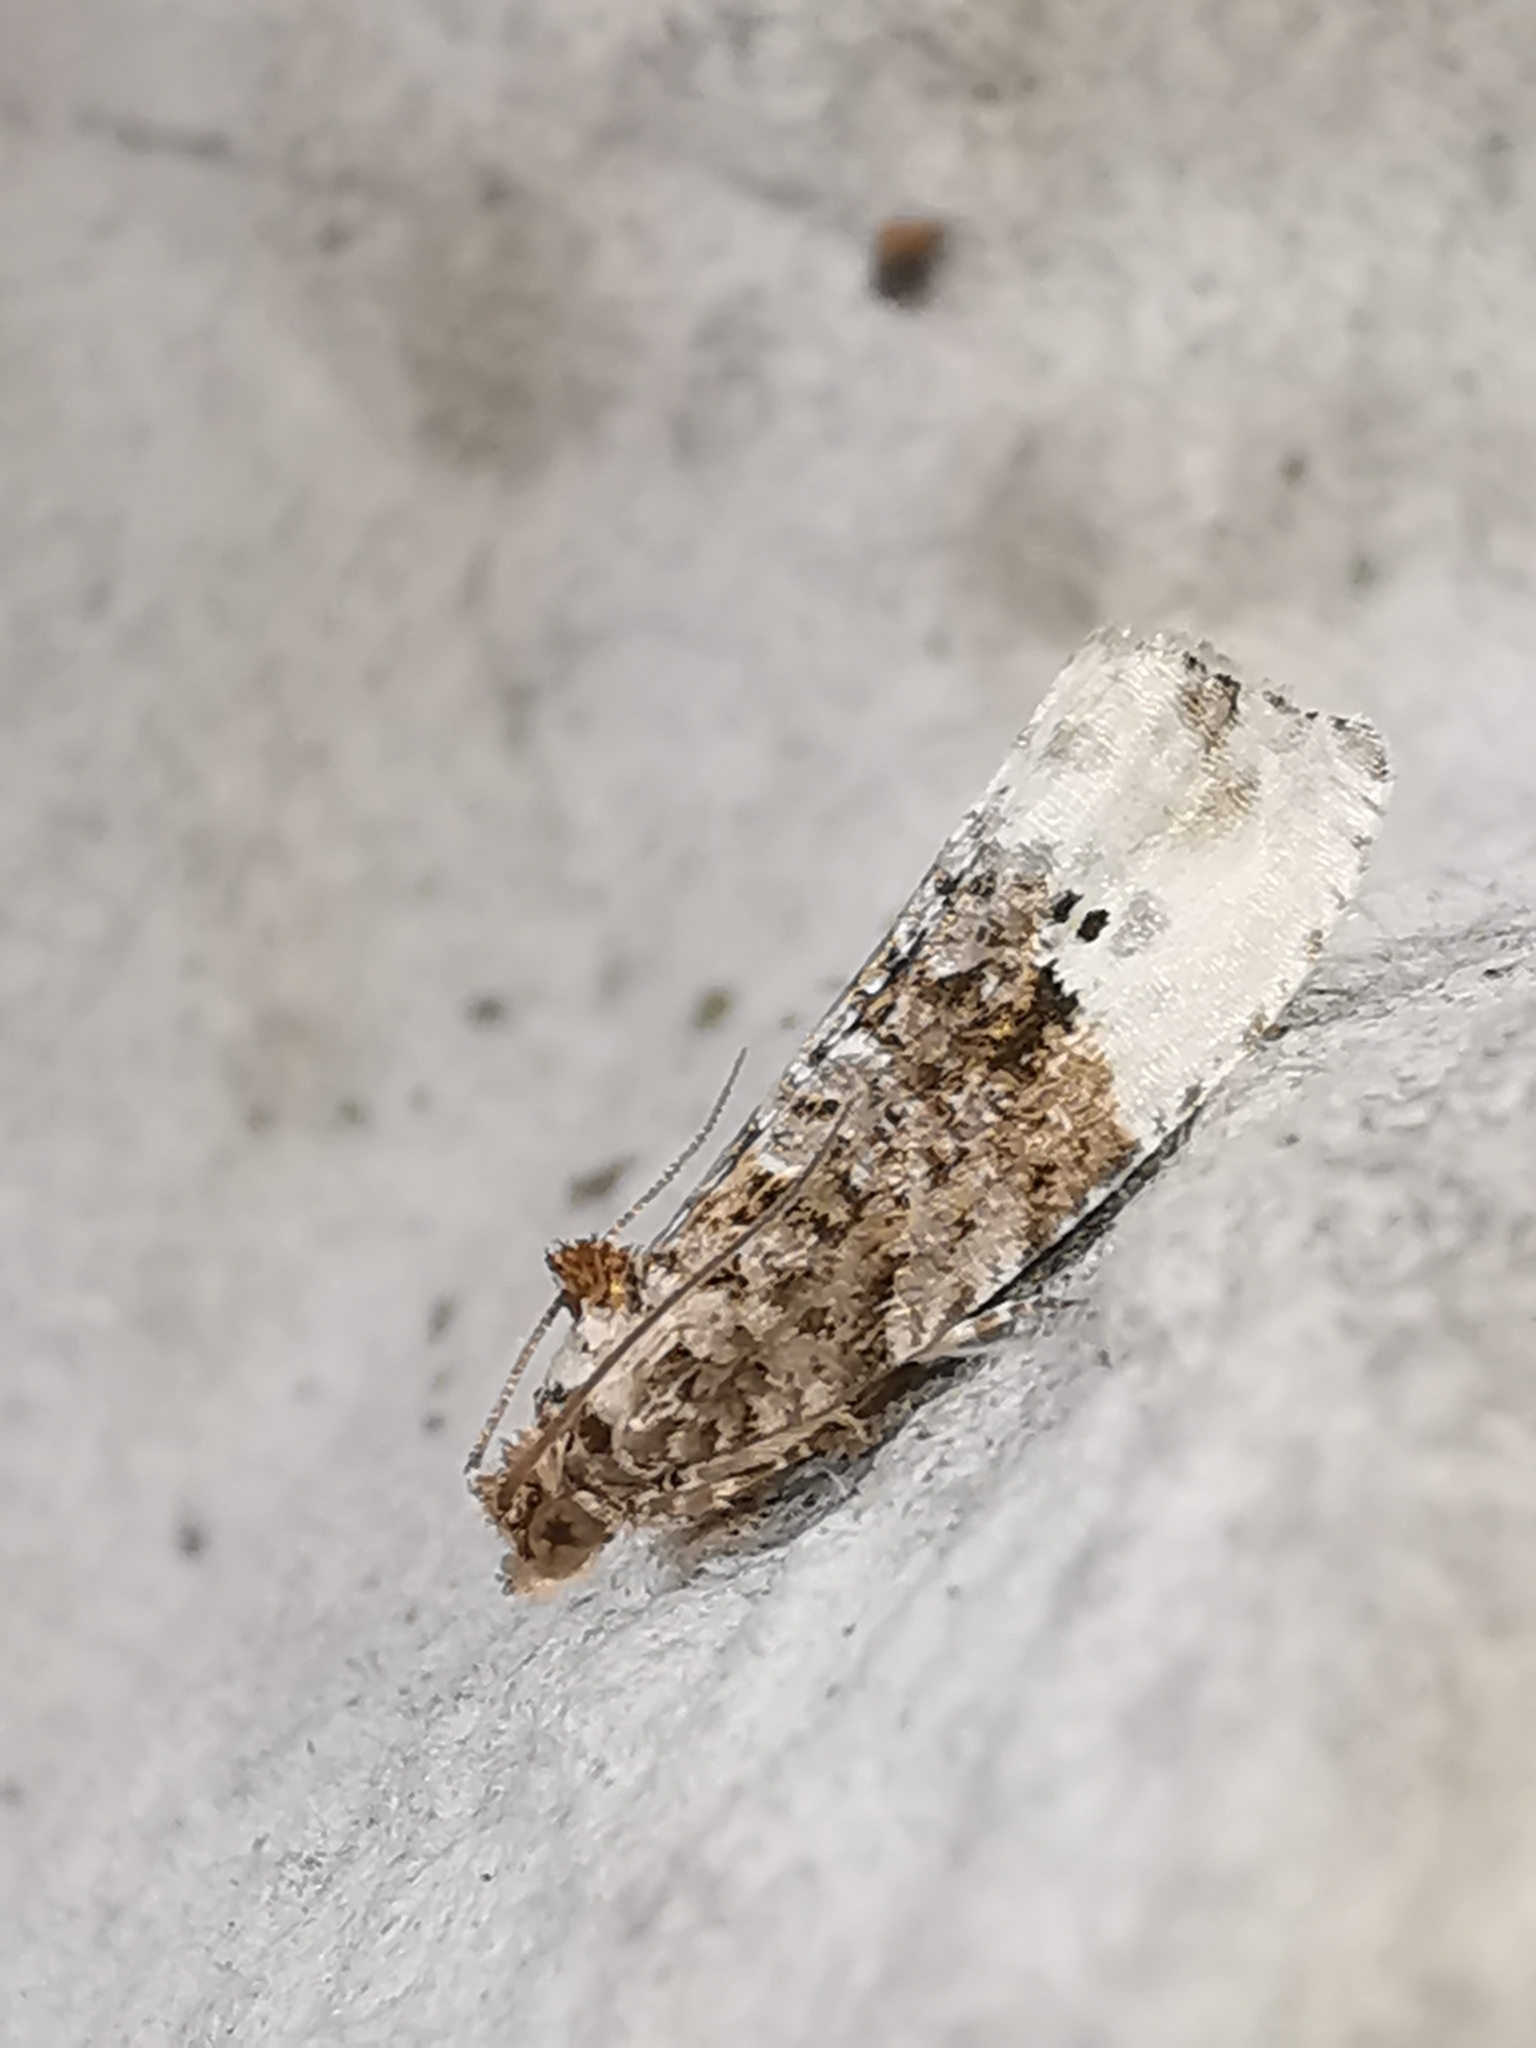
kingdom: Animalia
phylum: Arthropoda
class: Insecta
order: Lepidoptera
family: Tortricidae
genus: Hedya
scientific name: Hedya nubiferana
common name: Marbled orchard tortrix
